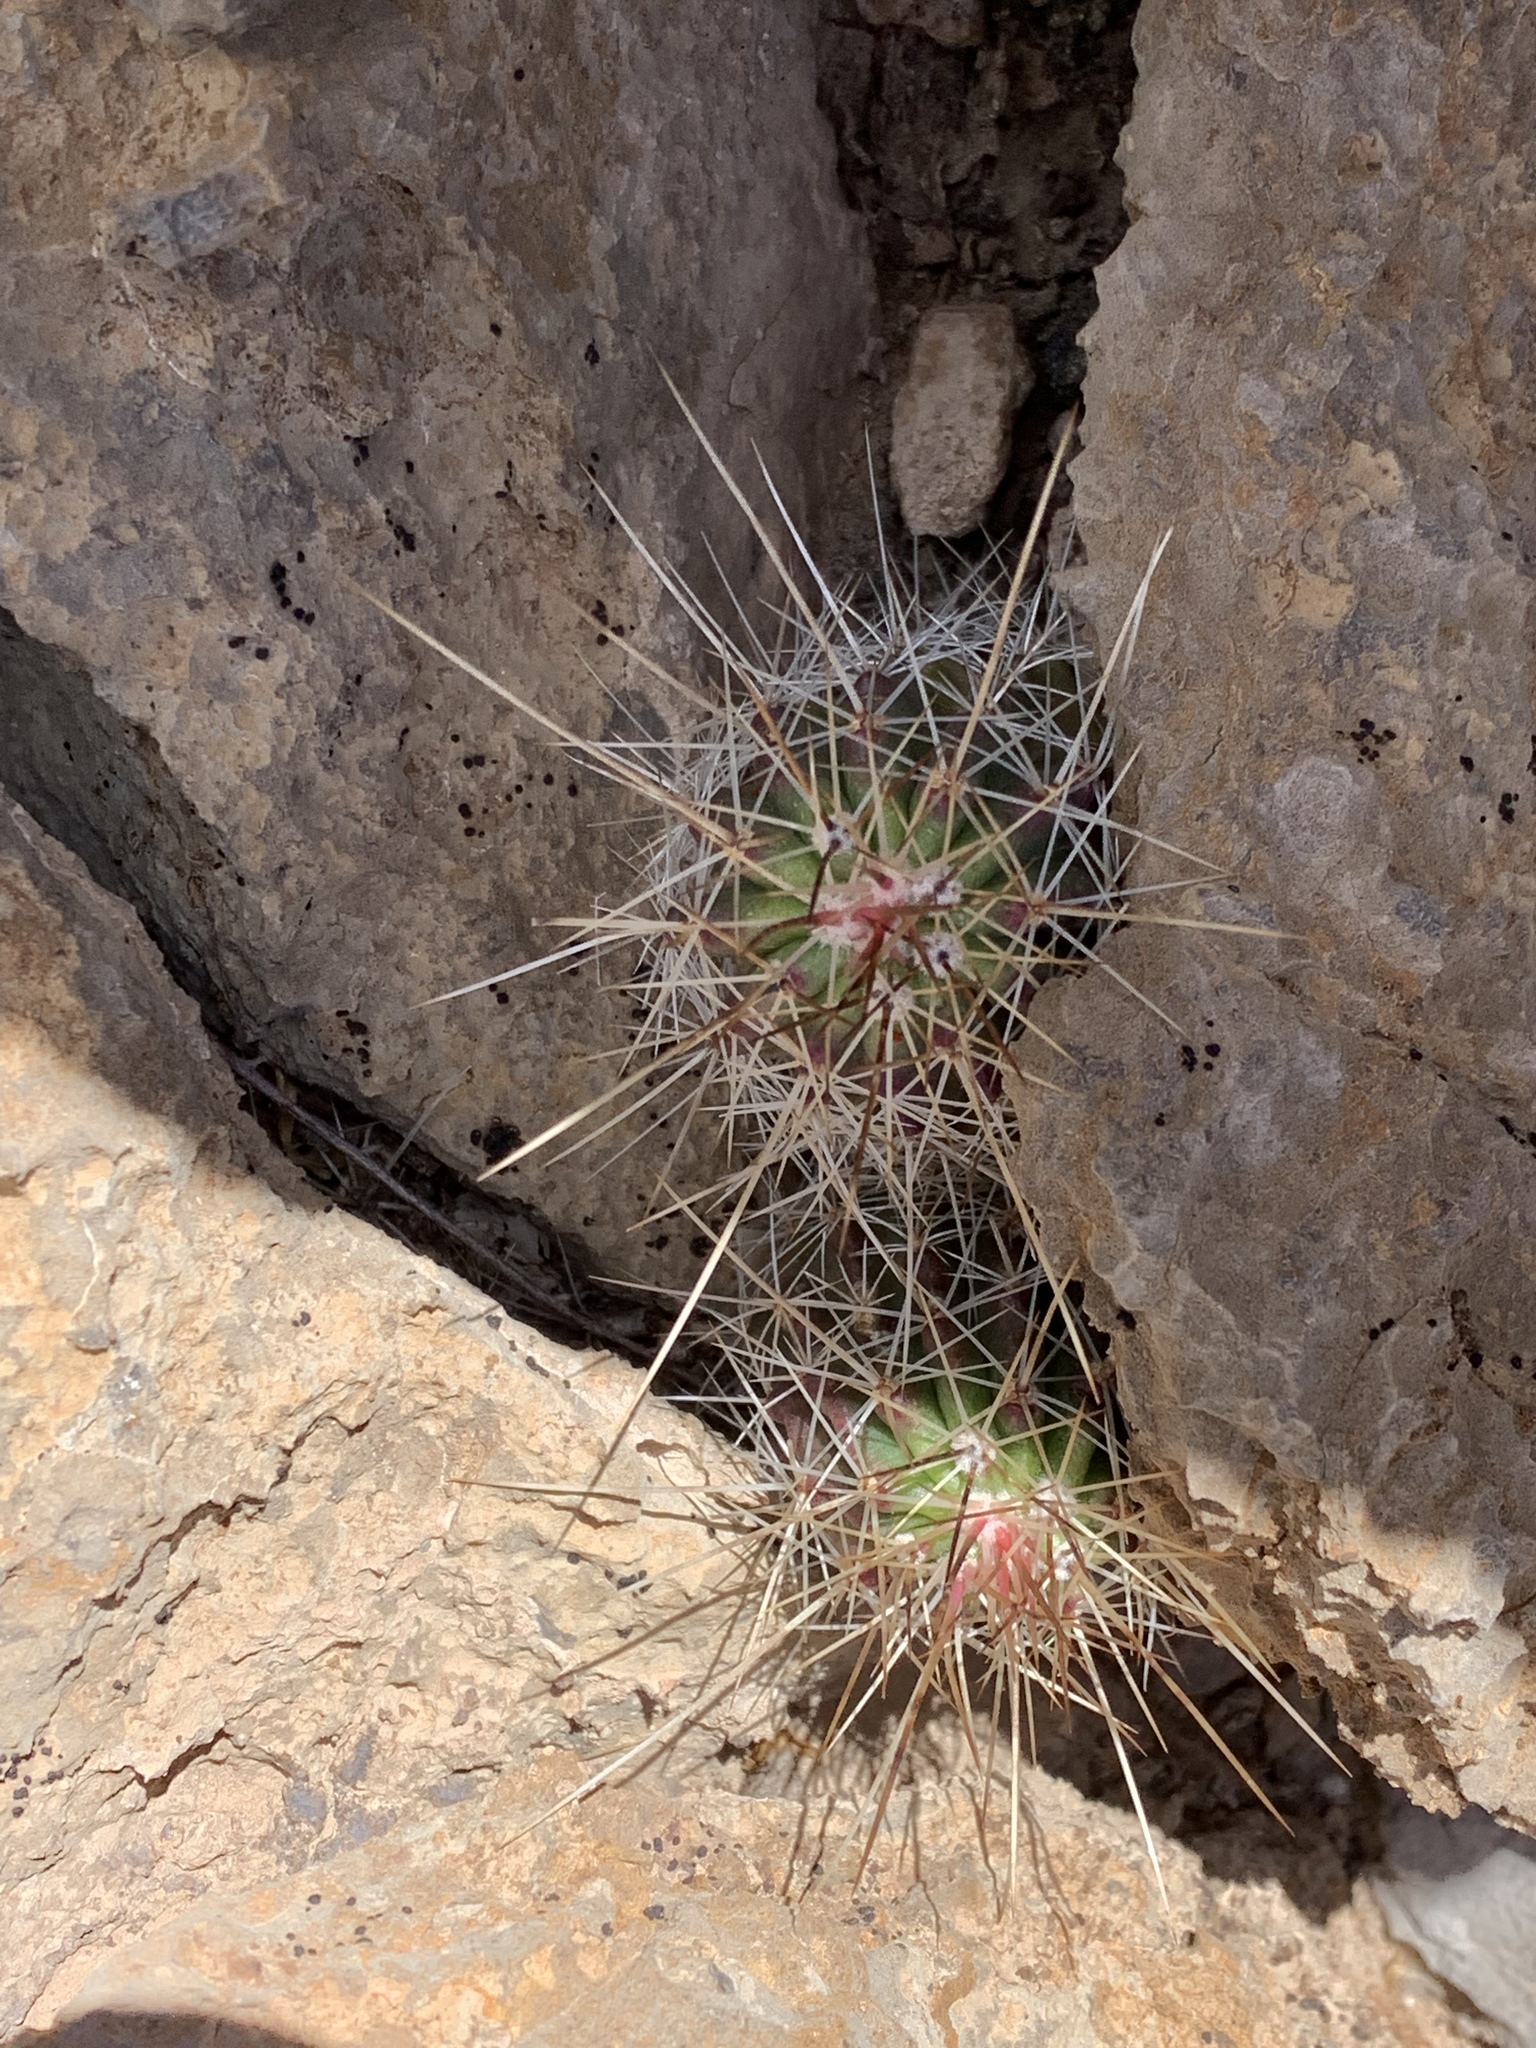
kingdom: Plantae
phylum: Tracheophyta
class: Magnoliopsida
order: Caryophyllales
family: Cactaceae
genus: Echinocereus
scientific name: Echinocereus stramineus
